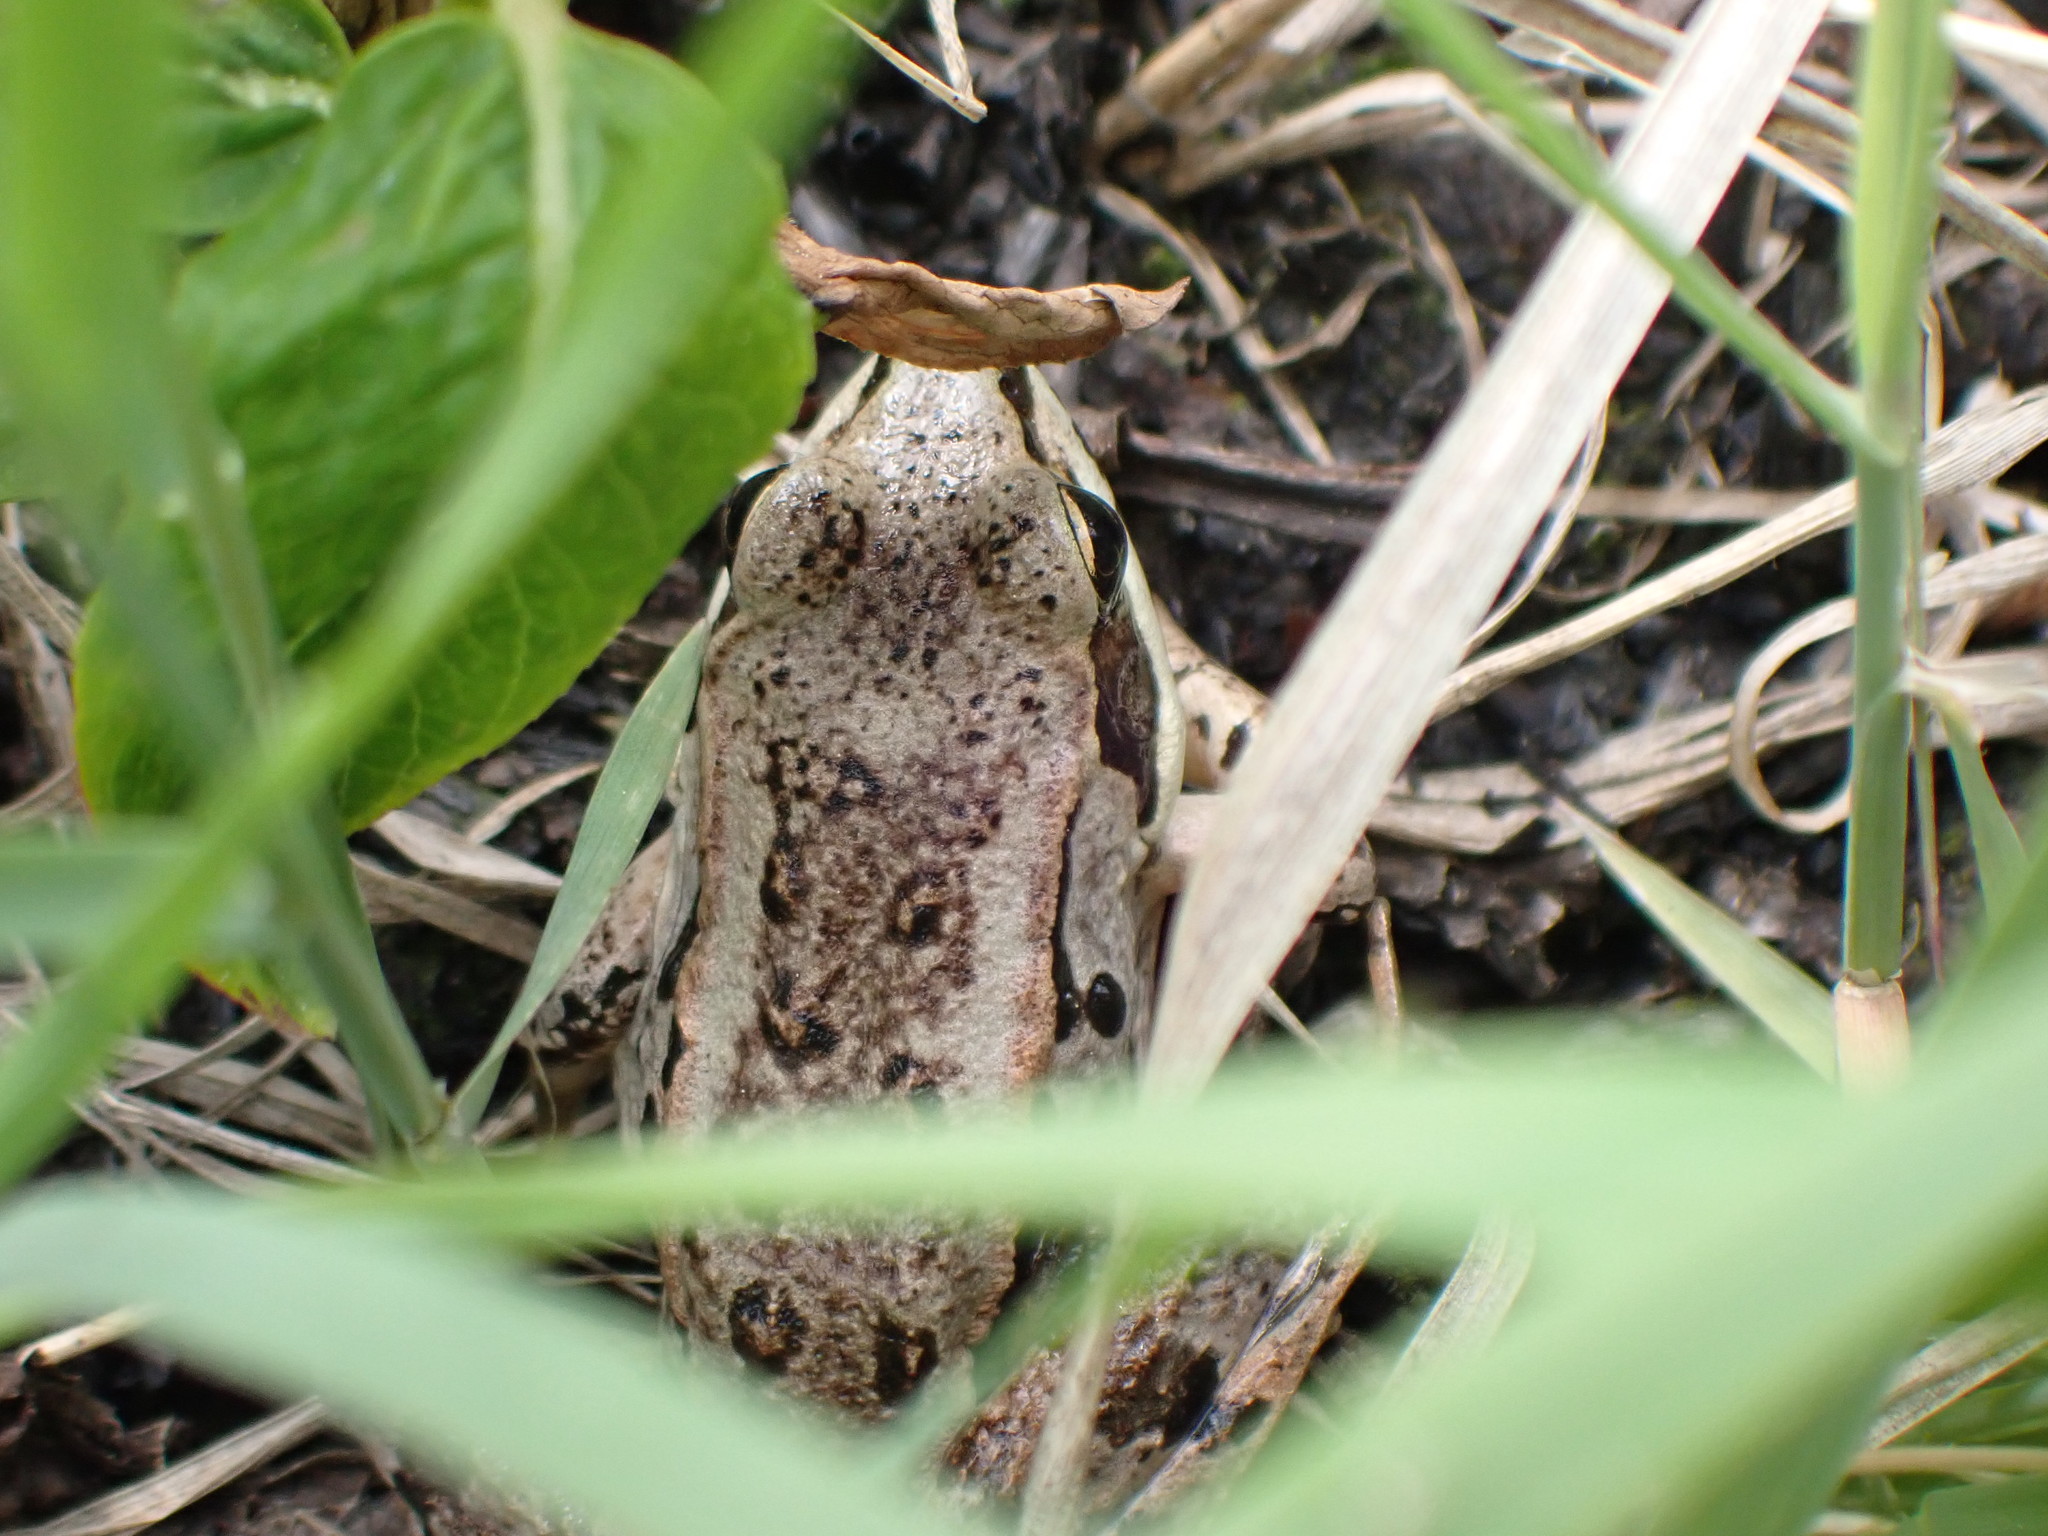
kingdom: Animalia
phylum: Chordata
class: Amphibia
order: Anura
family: Ranidae
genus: Lithobates
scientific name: Lithobates sylvaticus
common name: Wood frog
